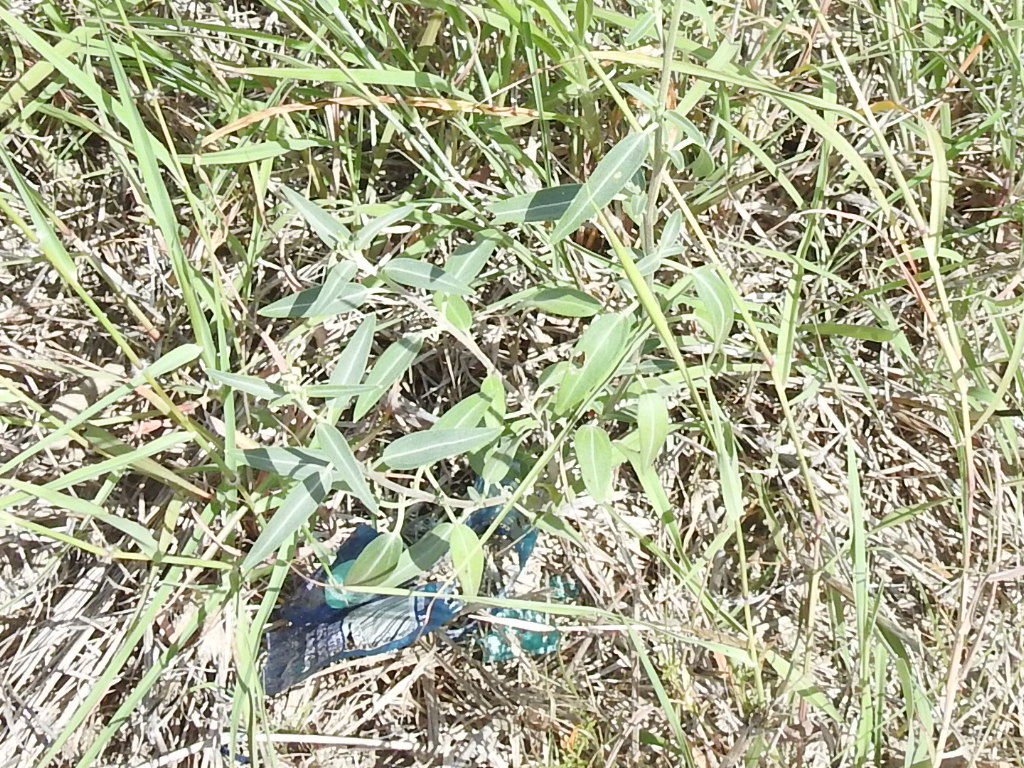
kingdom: Plantae
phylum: Tracheophyta
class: Magnoliopsida
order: Asterales
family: Asteraceae
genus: Palafoxia
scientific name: Palafoxia texana
